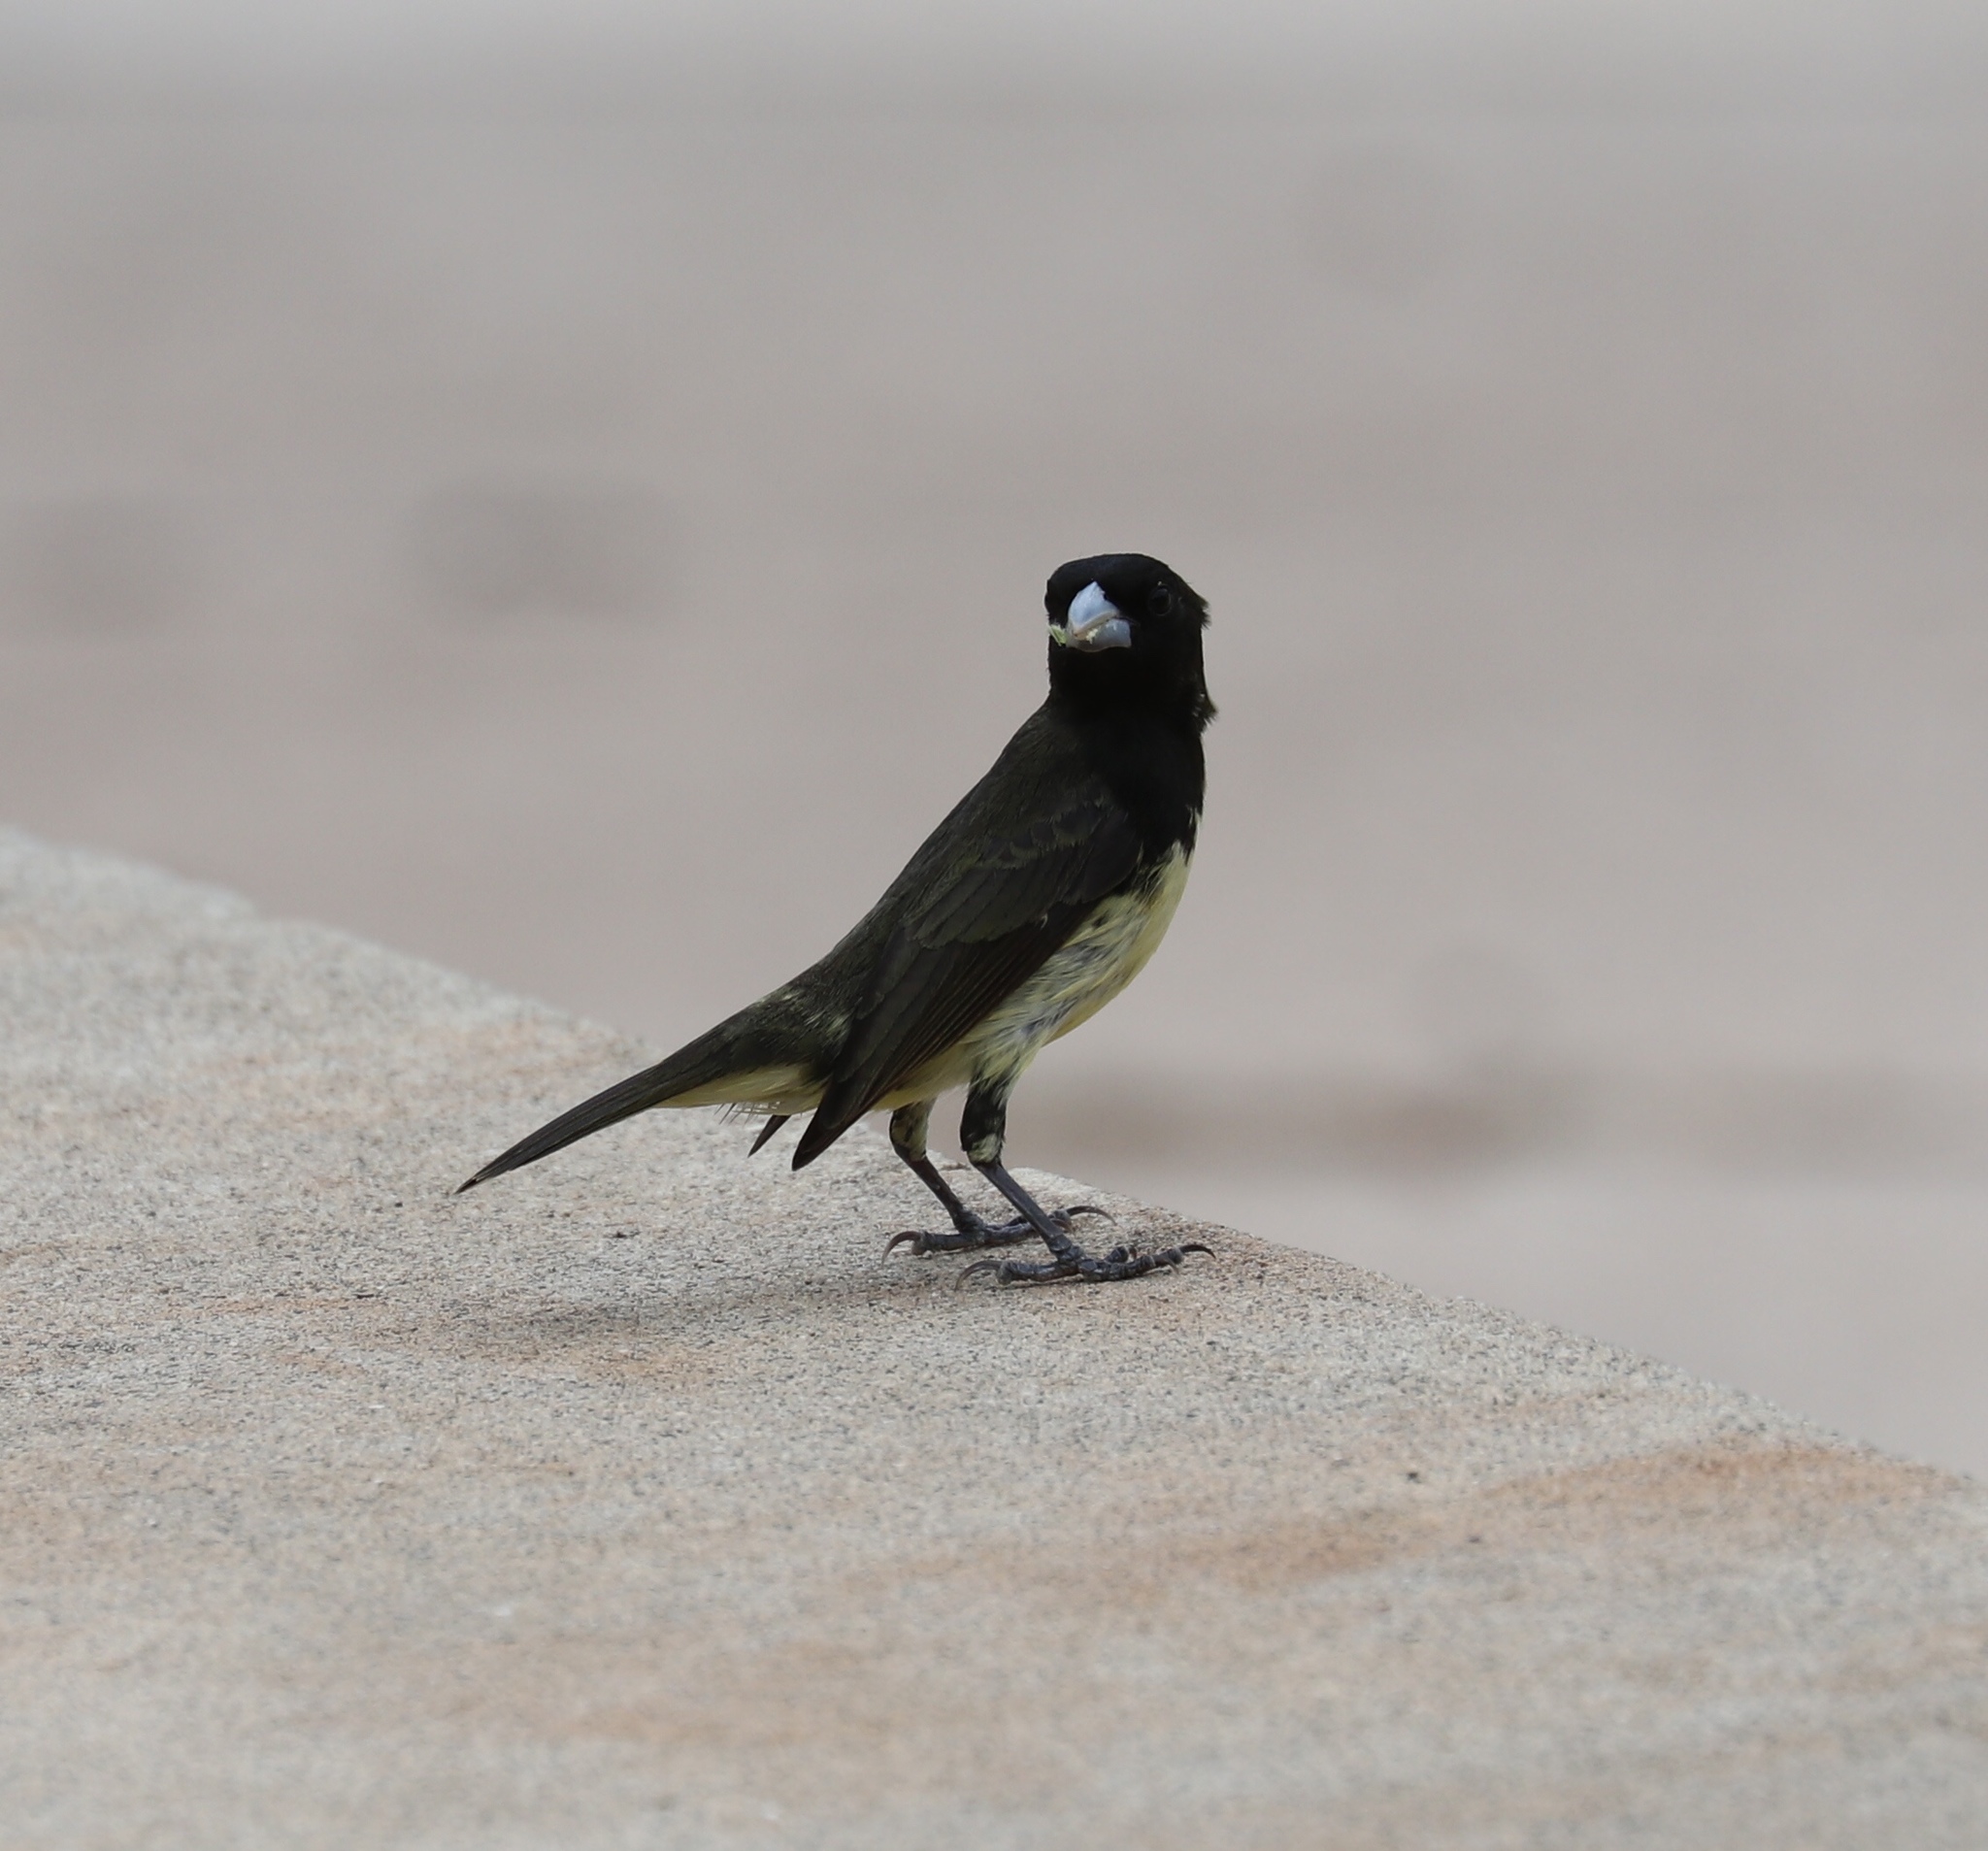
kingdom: Animalia
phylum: Chordata
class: Aves
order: Passeriformes
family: Thraupidae
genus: Sporophila
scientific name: Sporophila nigricollis
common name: Yellow-bellied seedeater
